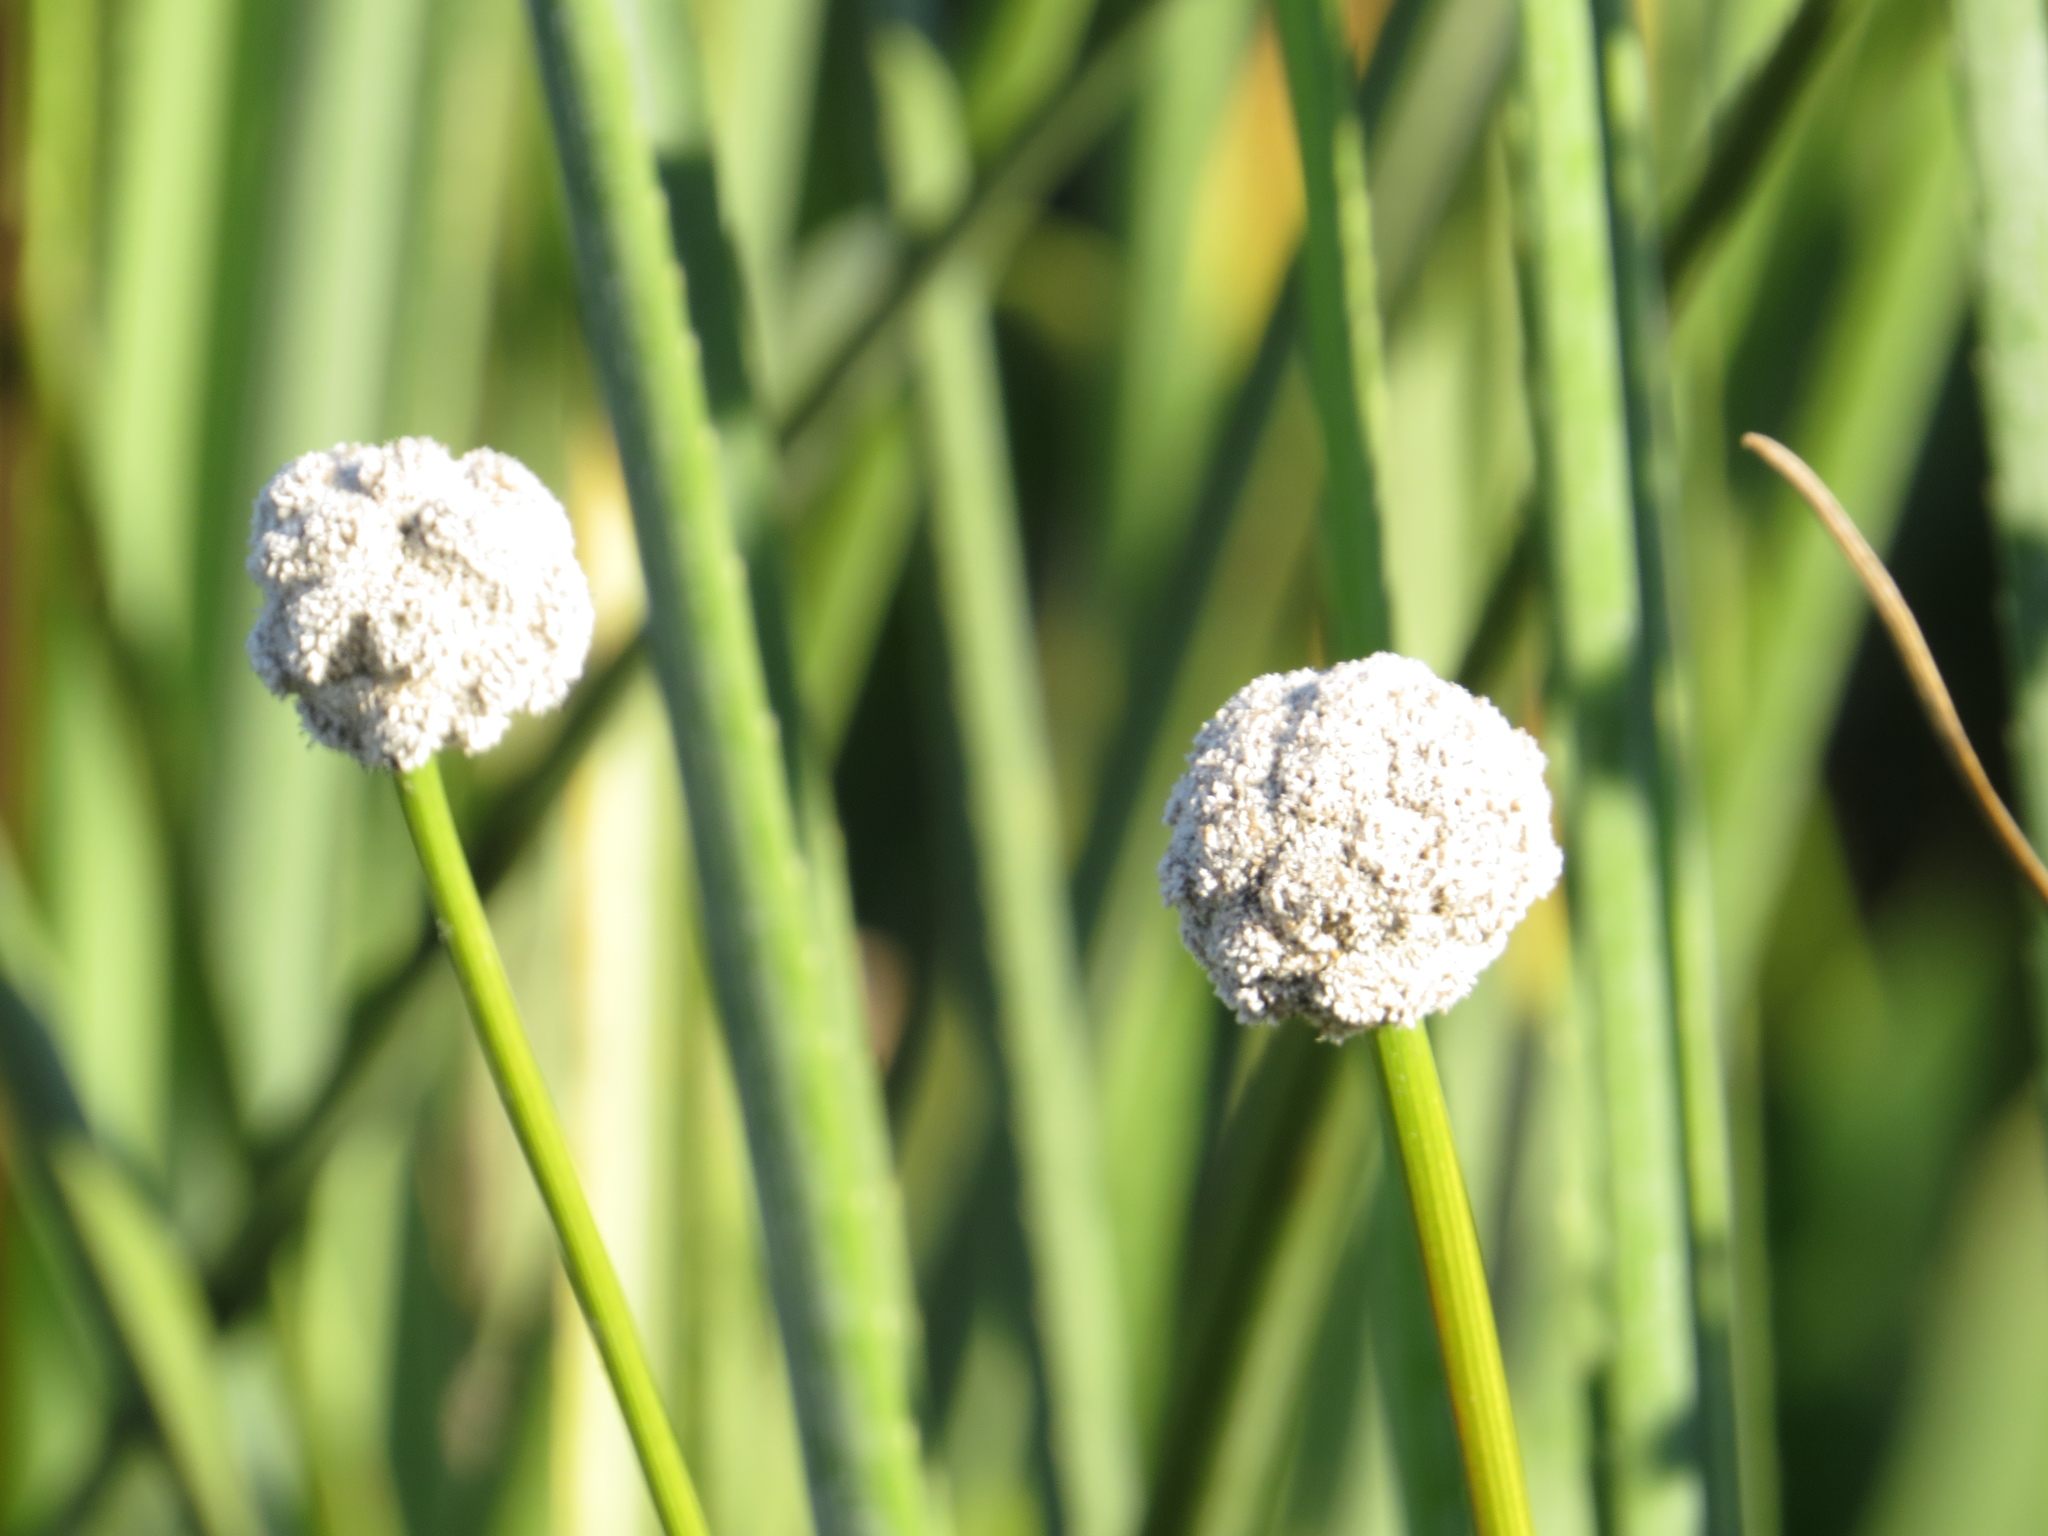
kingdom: Plantae
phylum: Tracheophyta
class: Liliopsida
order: Poales
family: Eriocaulaceae
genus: Eriocaulon
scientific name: Eriocaulon magnum
